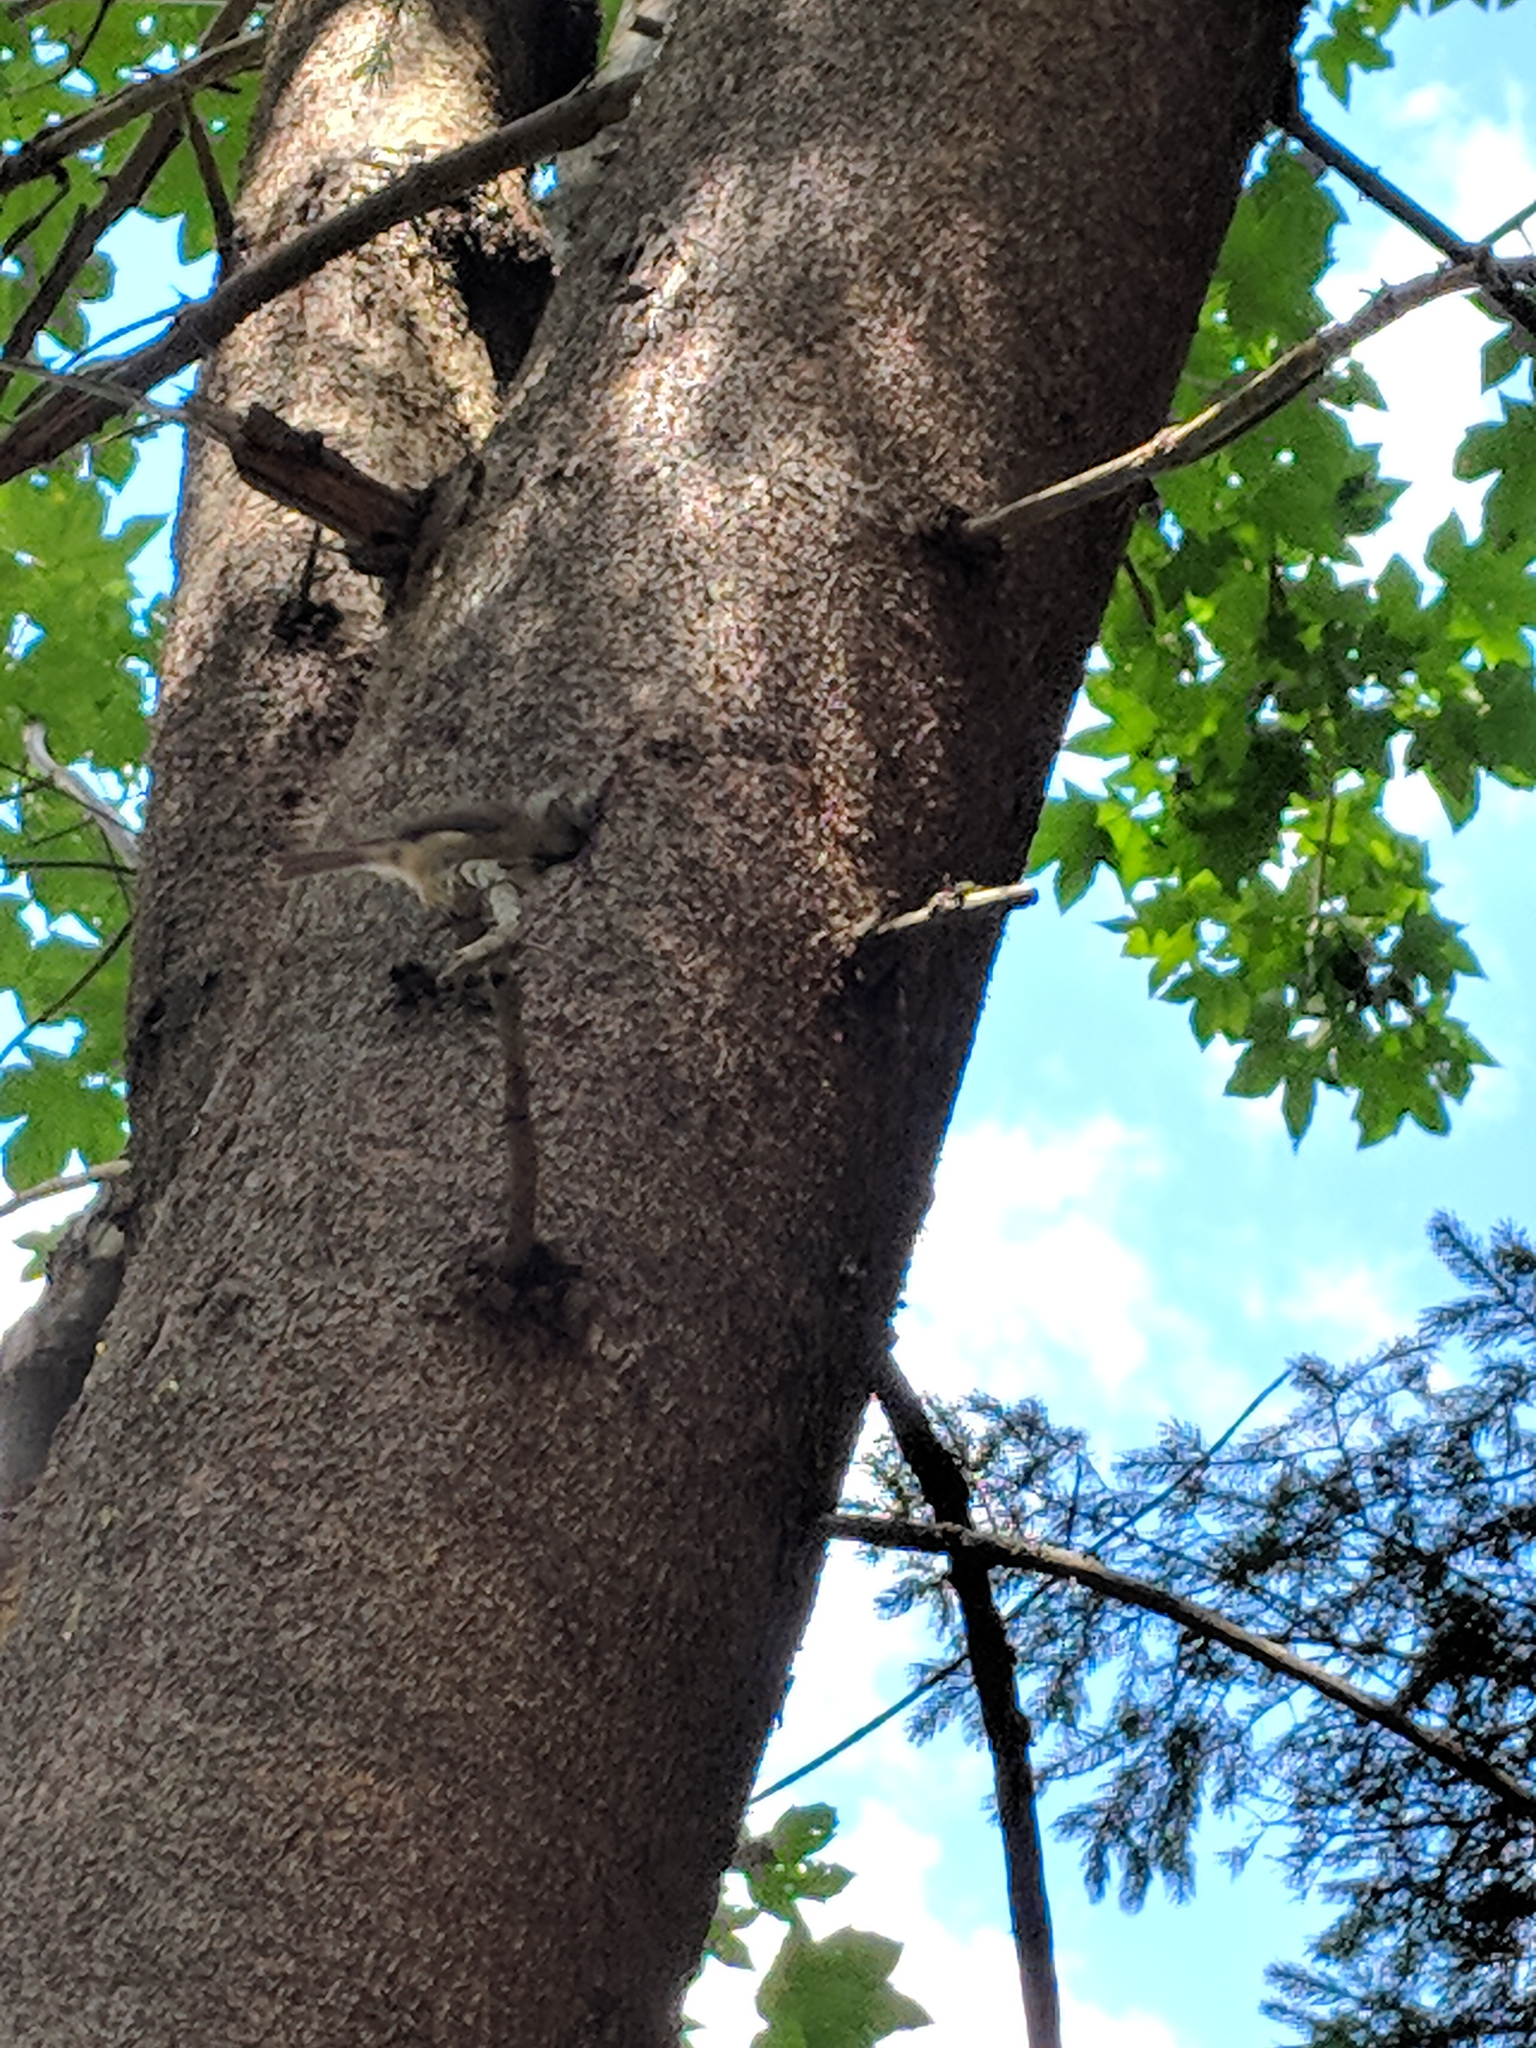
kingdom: Animalia
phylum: Chordata
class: Aves
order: Passeriformes
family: Paridae
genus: Lophophanes
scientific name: Lophophanes cristatus
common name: European crested tit
